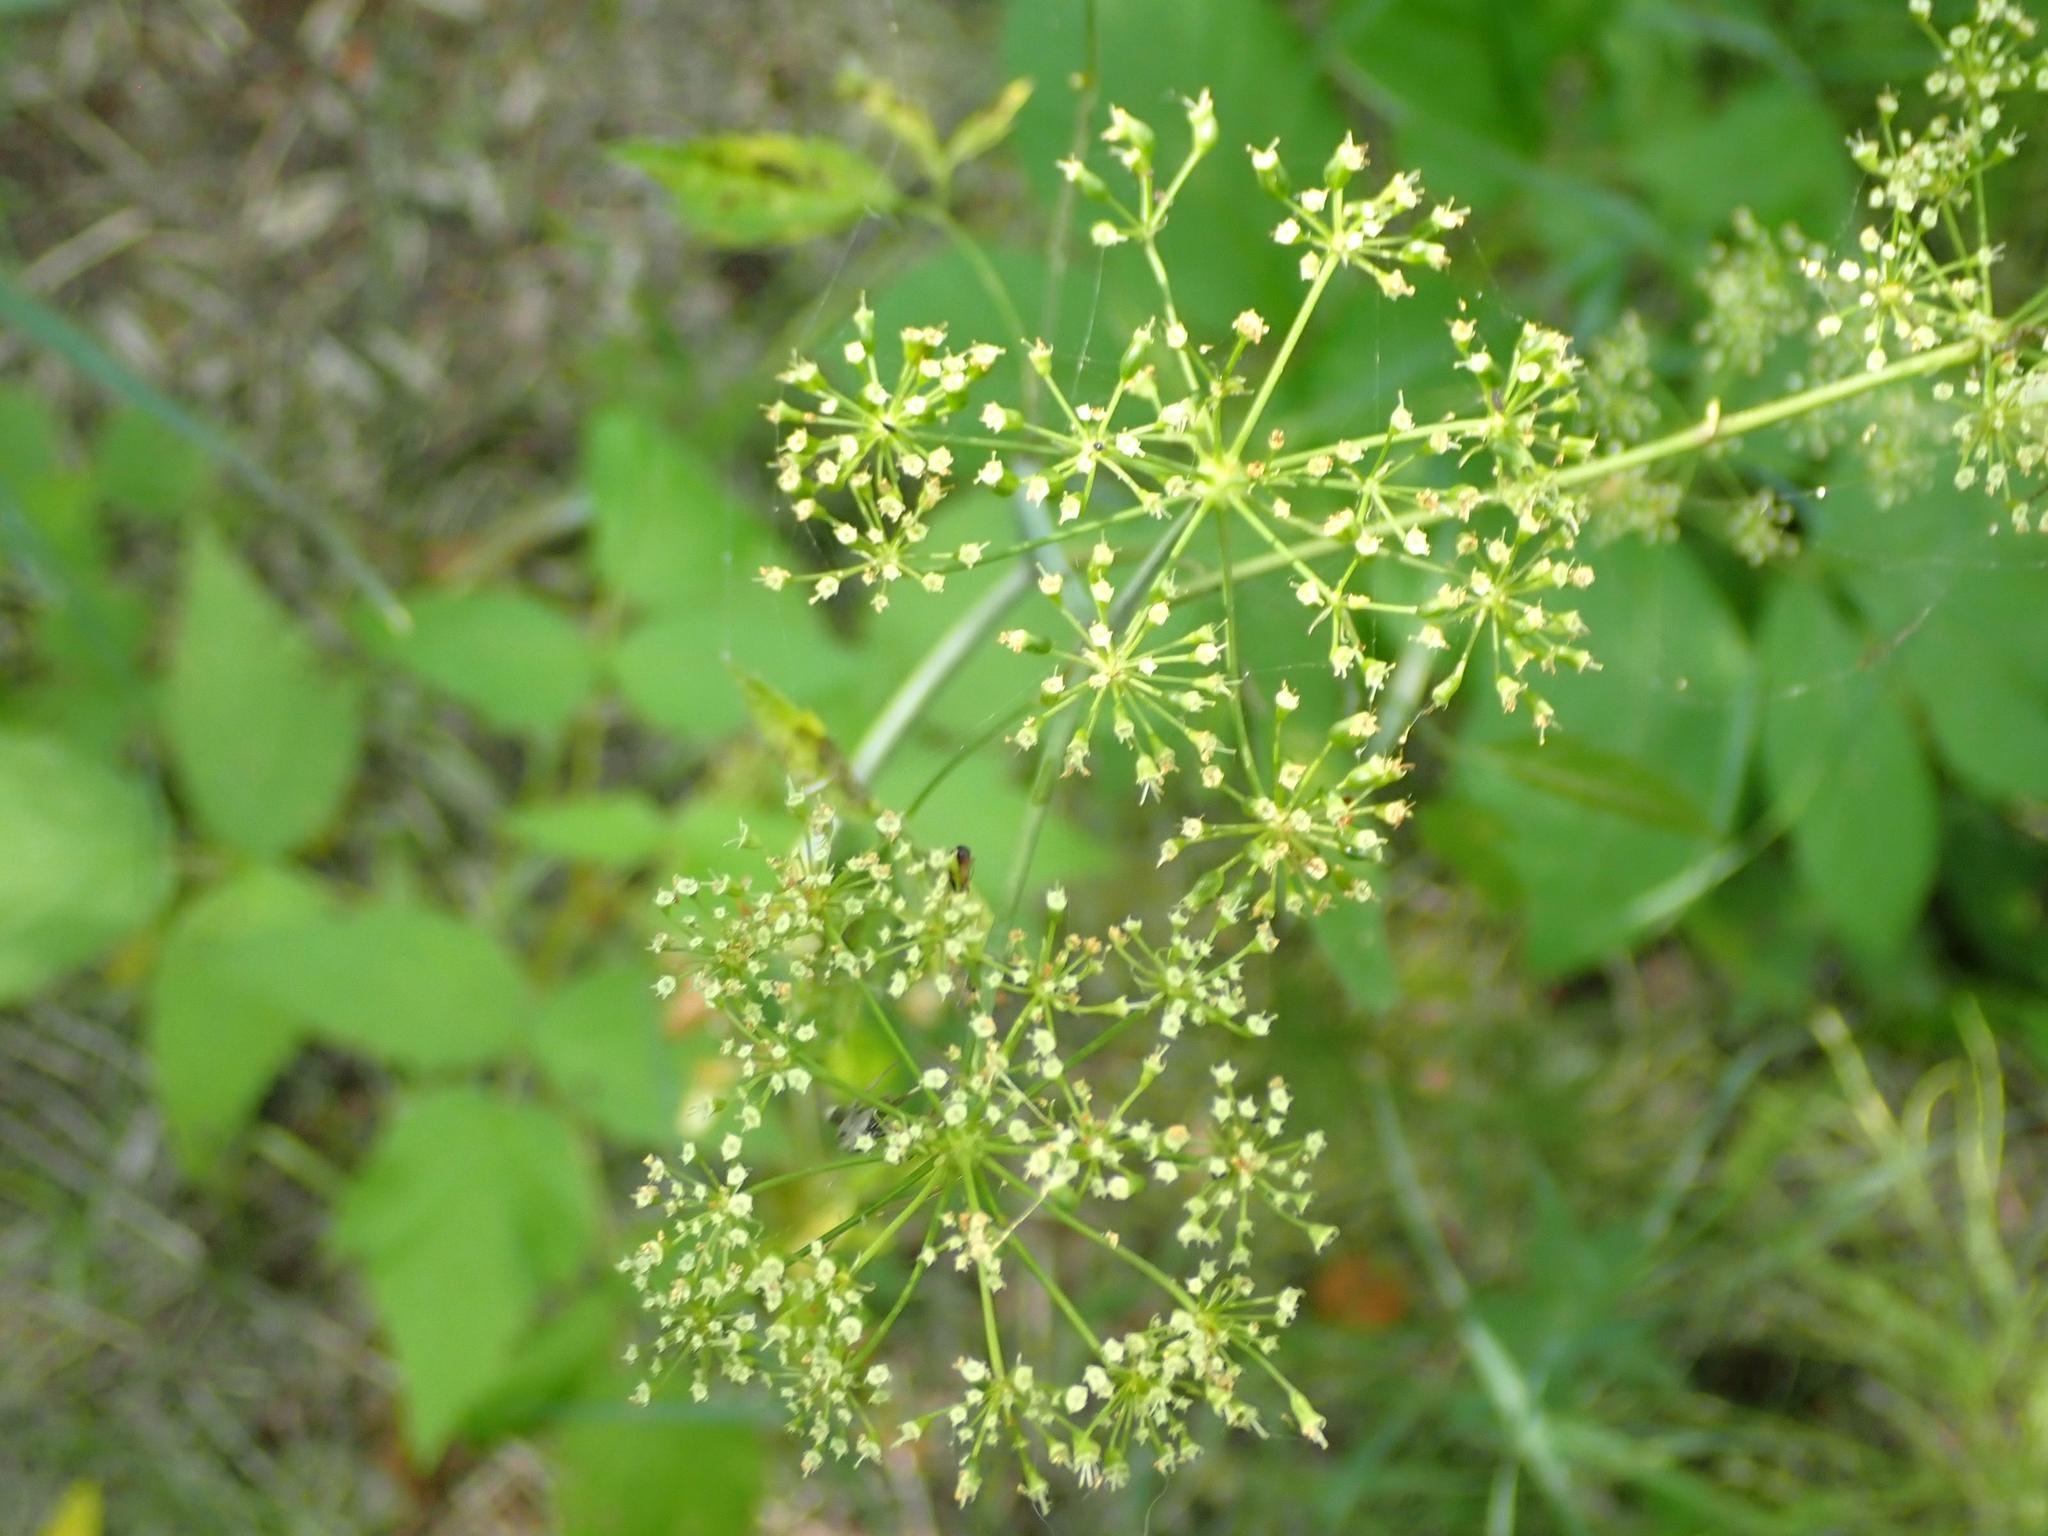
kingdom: Plantae
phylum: Tracheophyta
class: Magnoliopsida
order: Apiales
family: Apiaceae
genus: Cicuta
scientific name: Cicuta maculata
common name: Spotted cowbane
